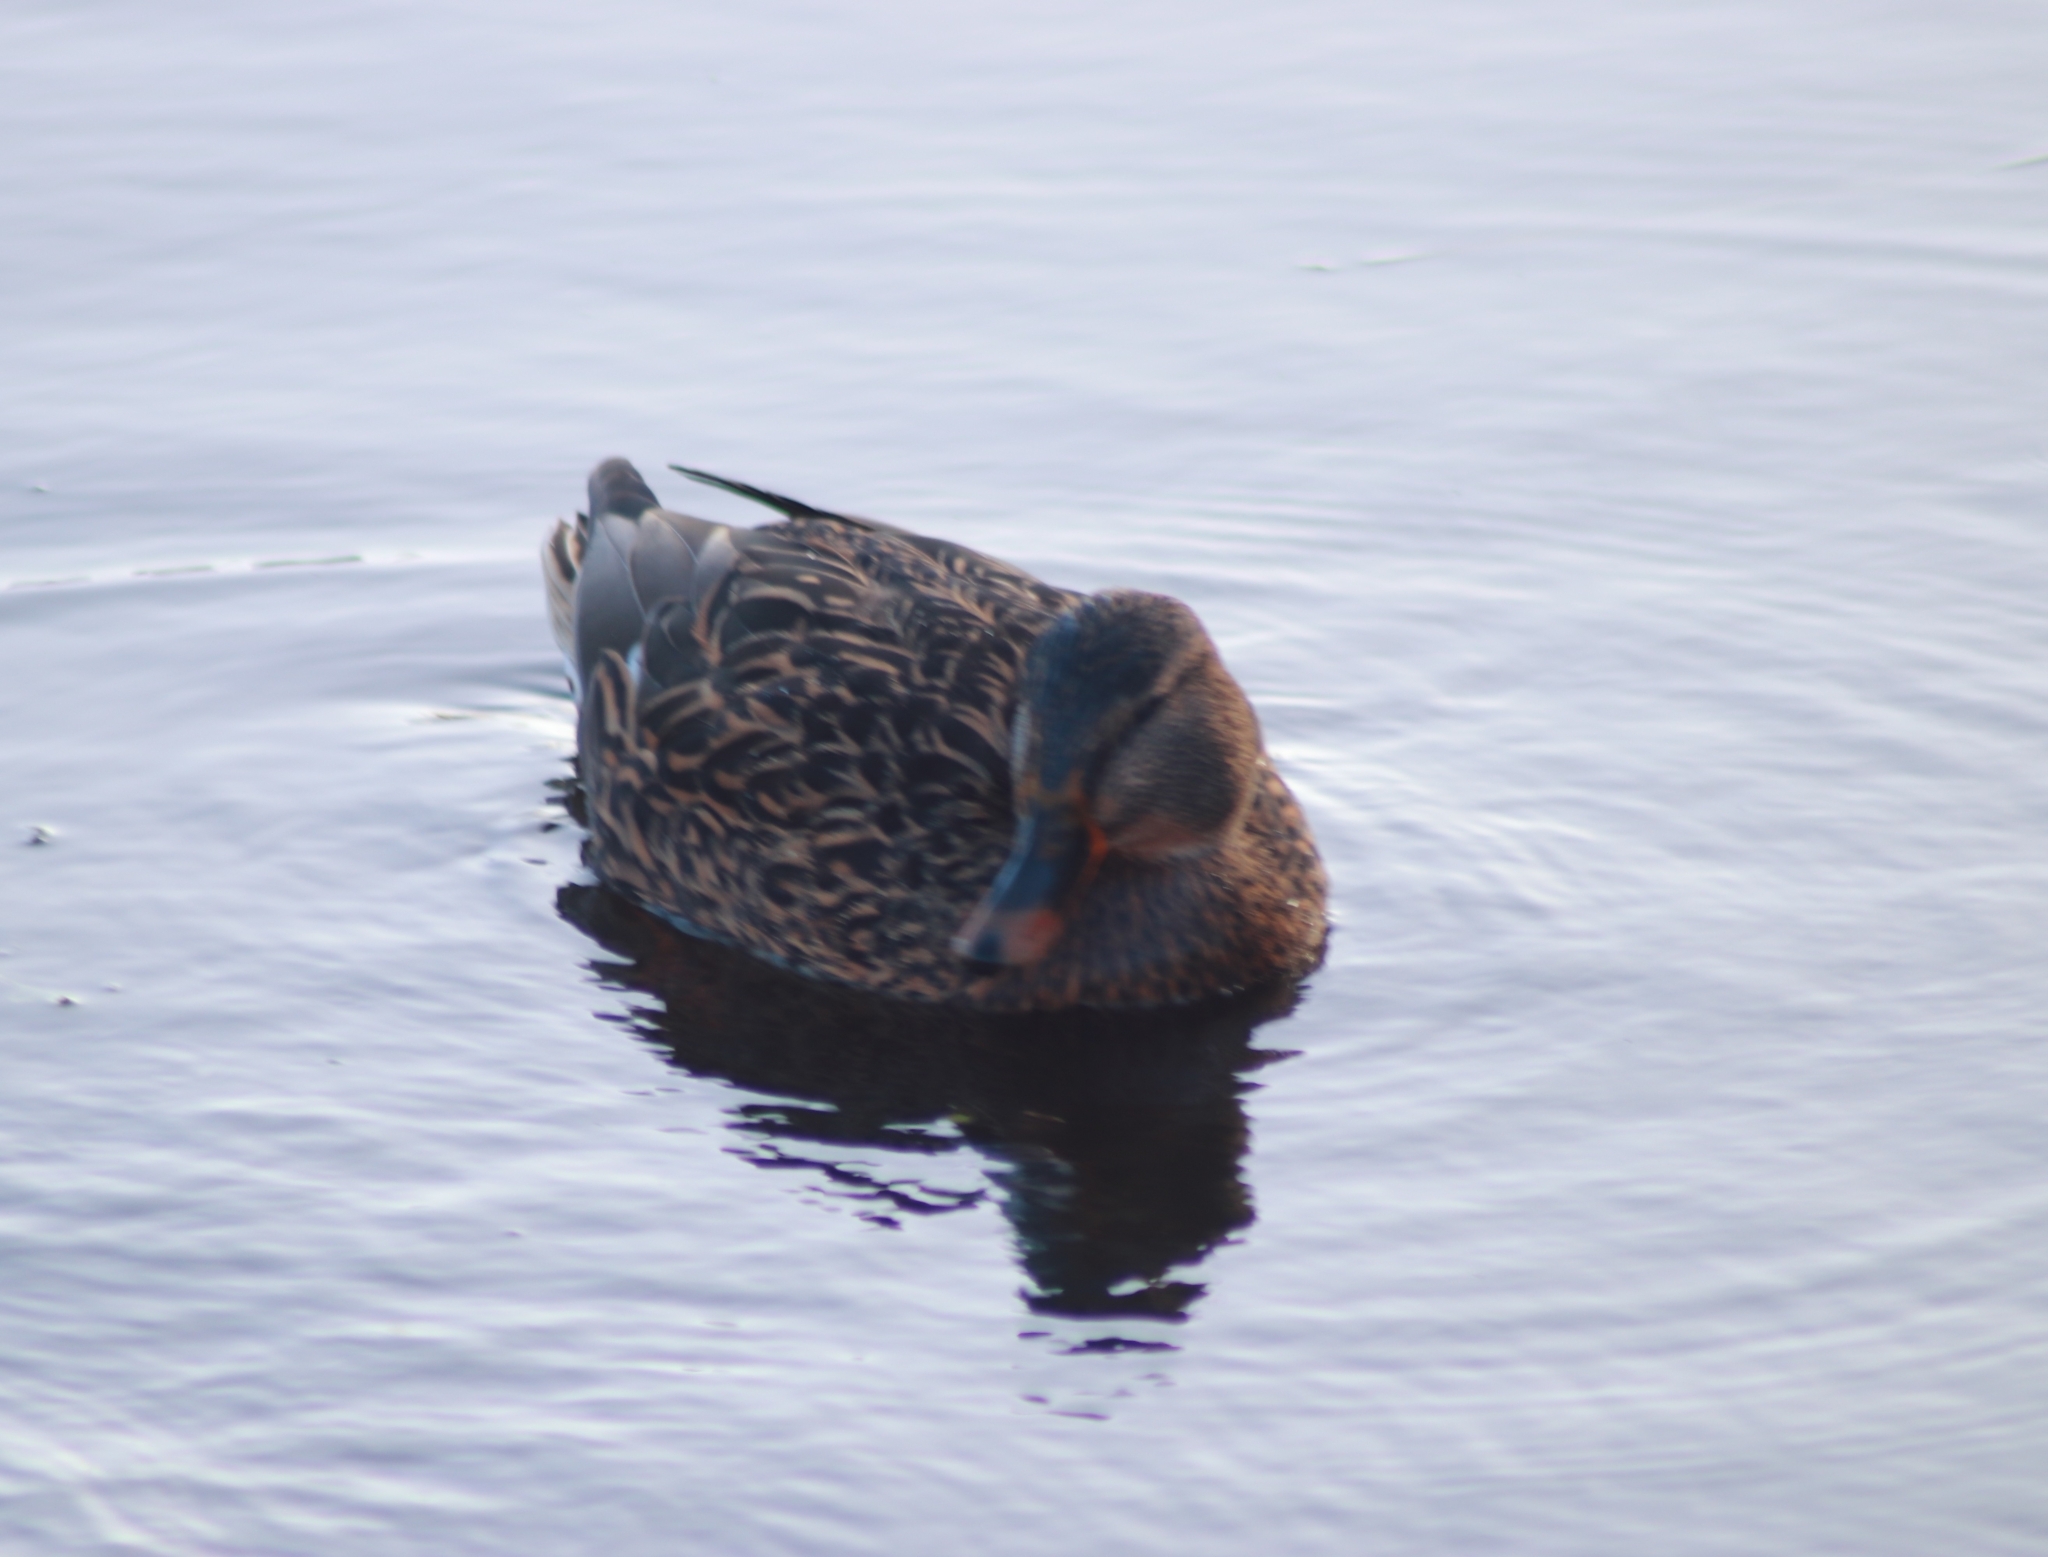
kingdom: Animalia
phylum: Chordata
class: Aves
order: Anseriformes
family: Anatidae
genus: Anas
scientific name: Anas platyrhynchos
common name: Mallard
